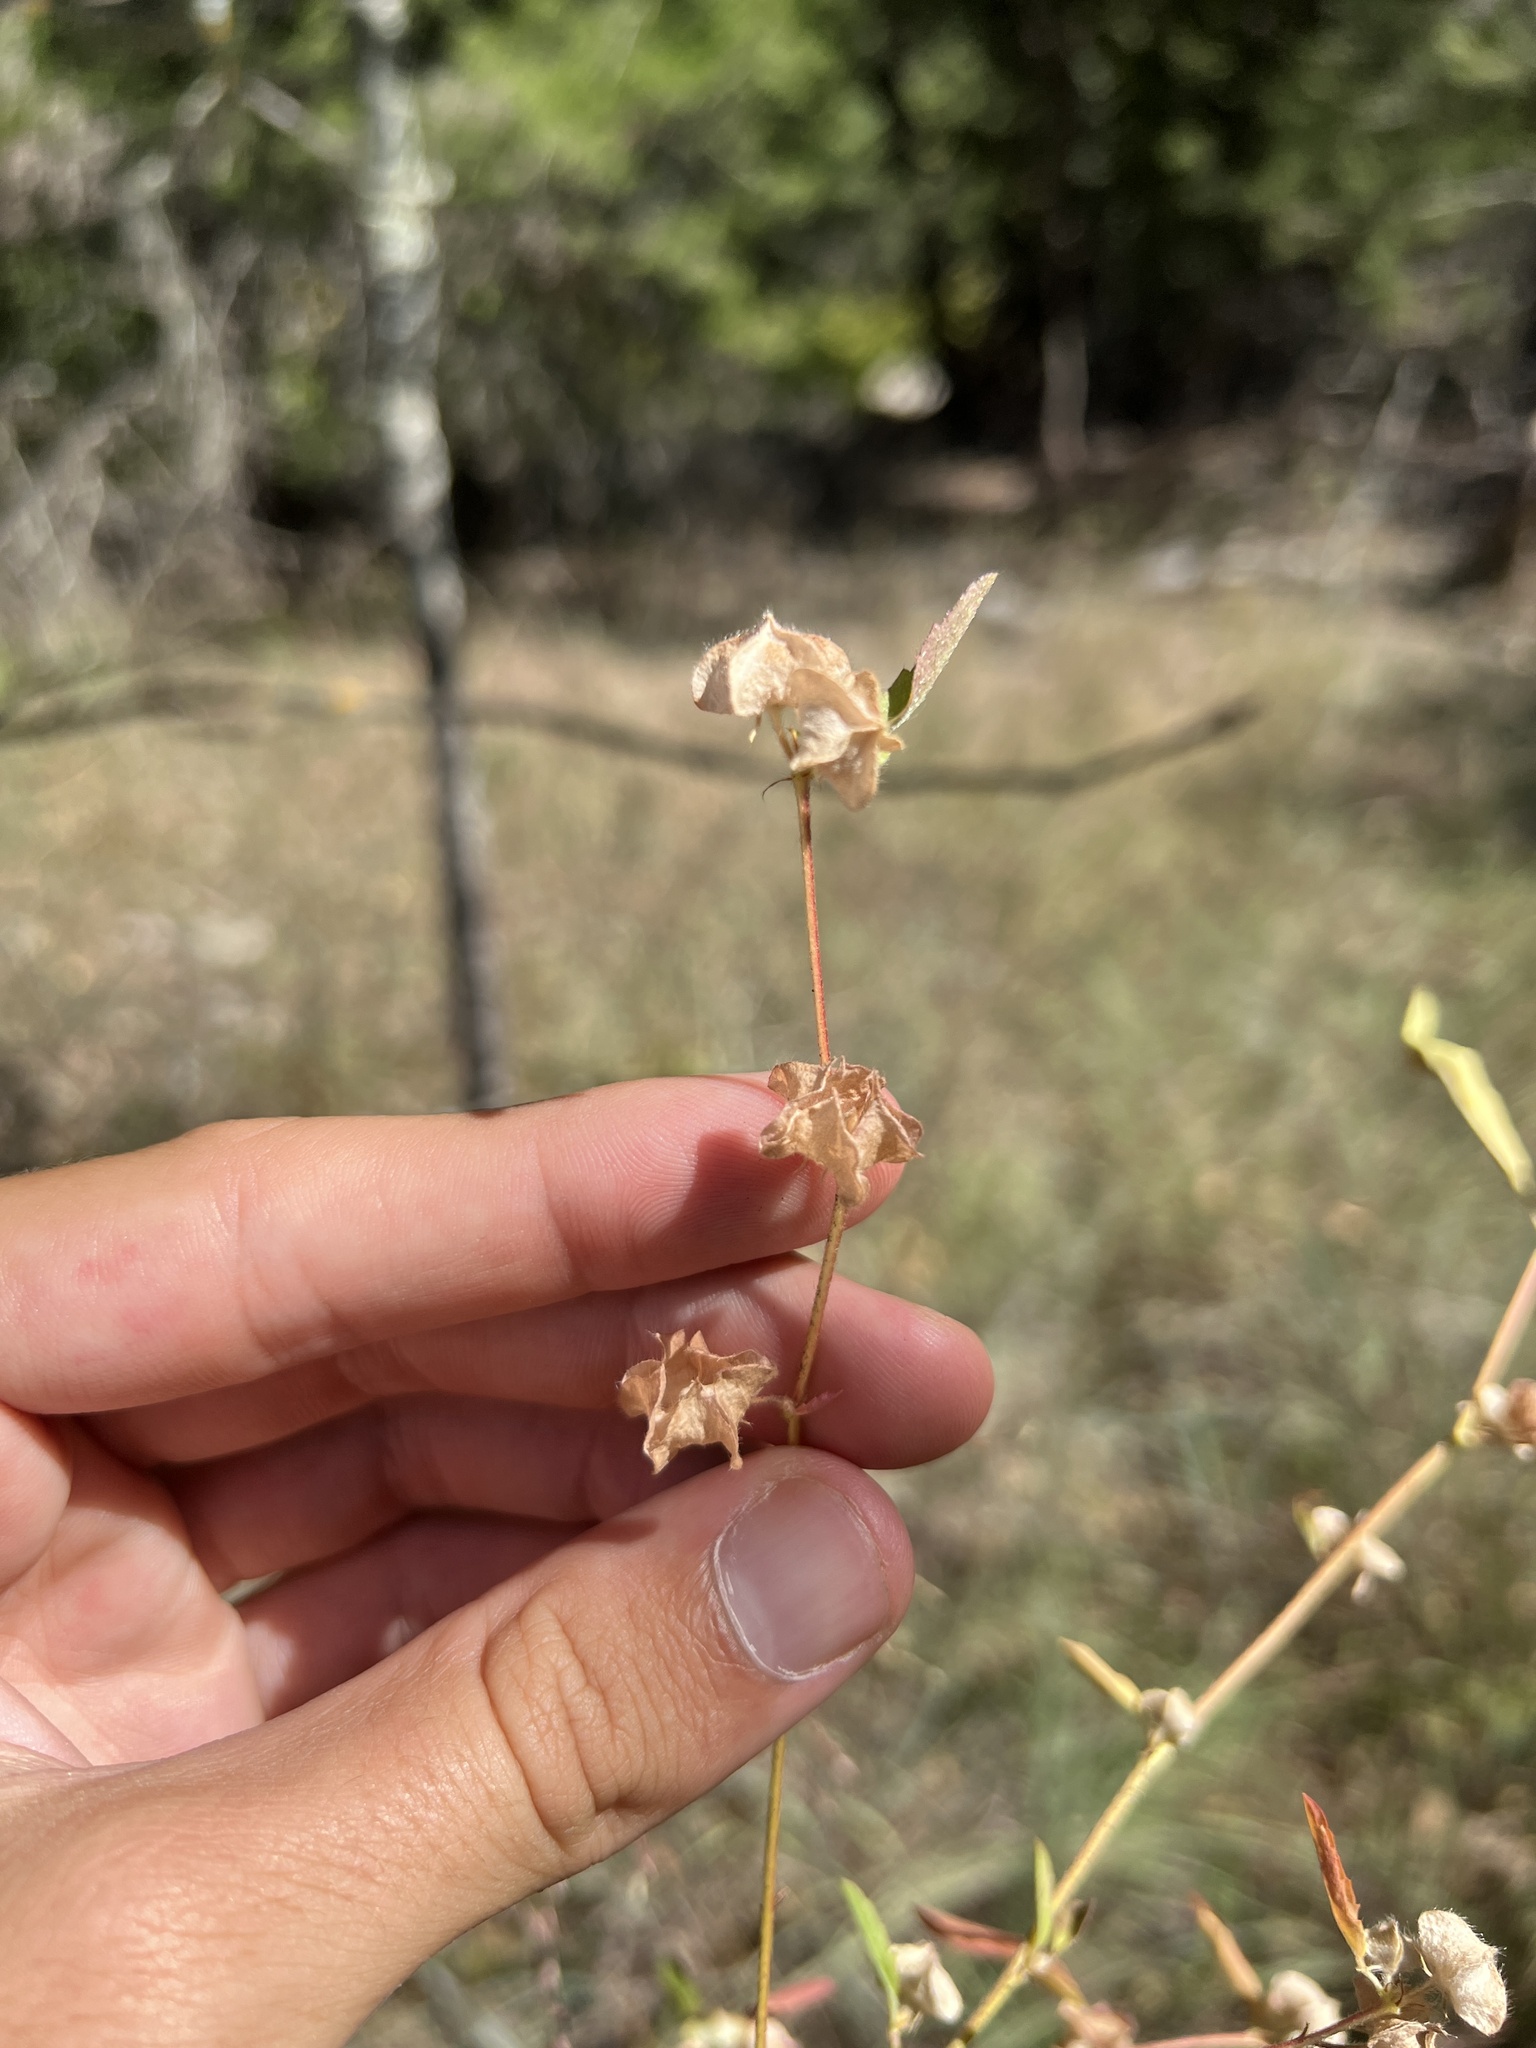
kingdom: Plantae
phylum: Tracheophyta
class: Magnoliopsida
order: Malvales
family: Malvaceae
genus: Malvastrum
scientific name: Malvastrum hispidum
